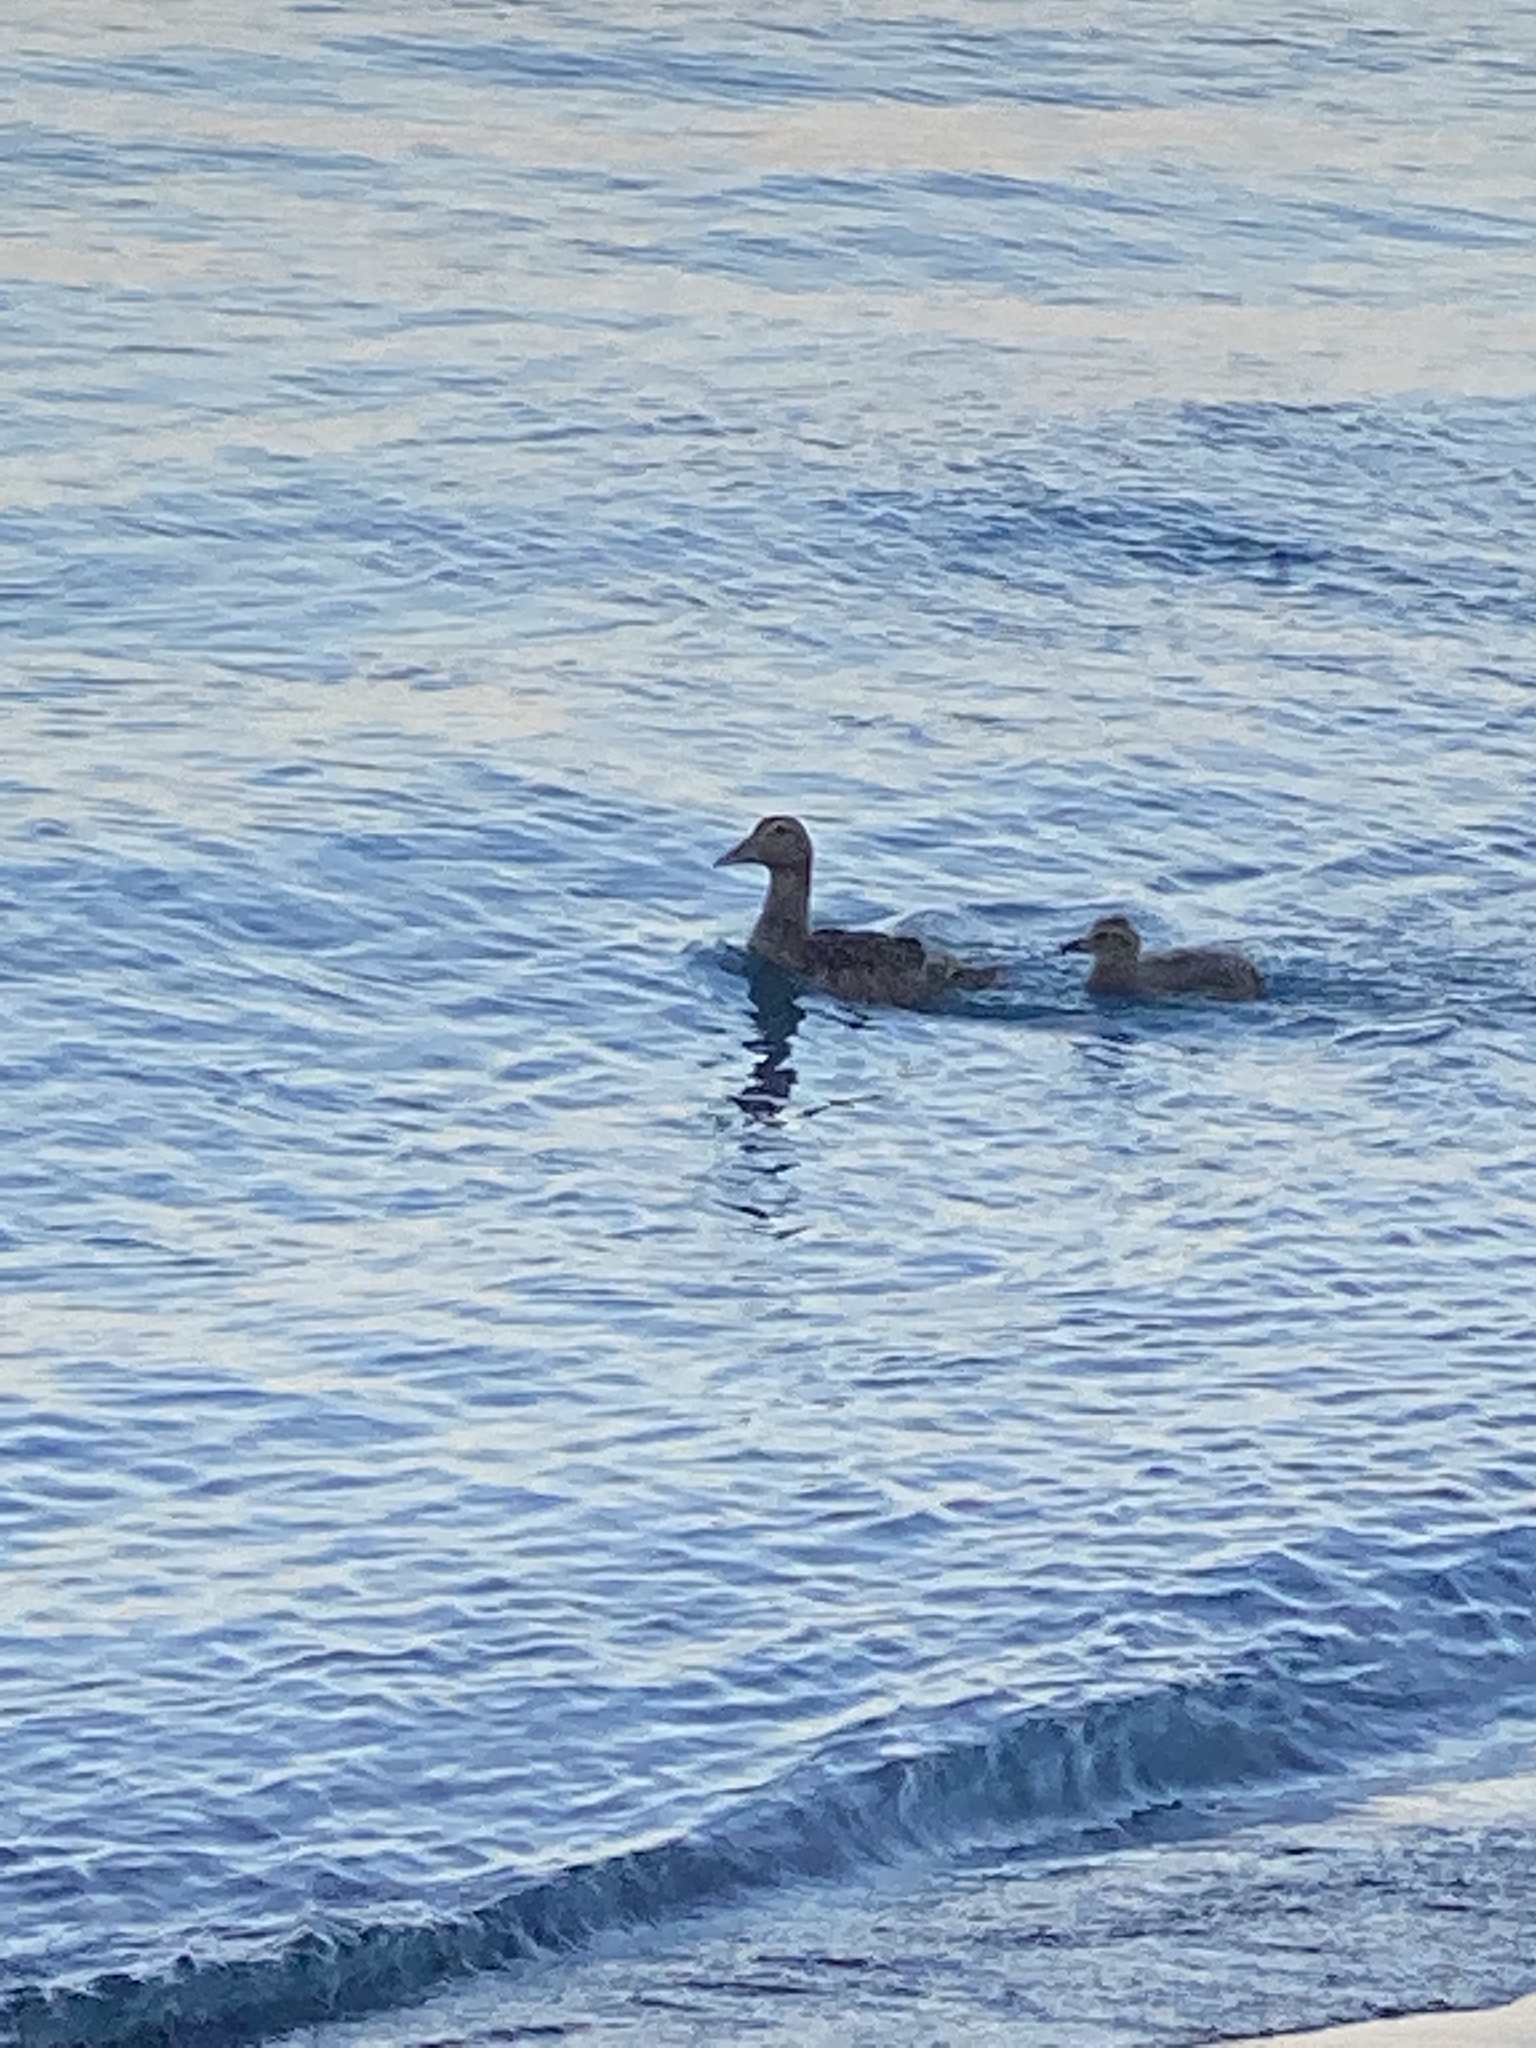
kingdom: Animalia
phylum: Chordata
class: Aves
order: Anseriformes
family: Anatidae
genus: Somateria
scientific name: Somateria mollissima
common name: Common eider
